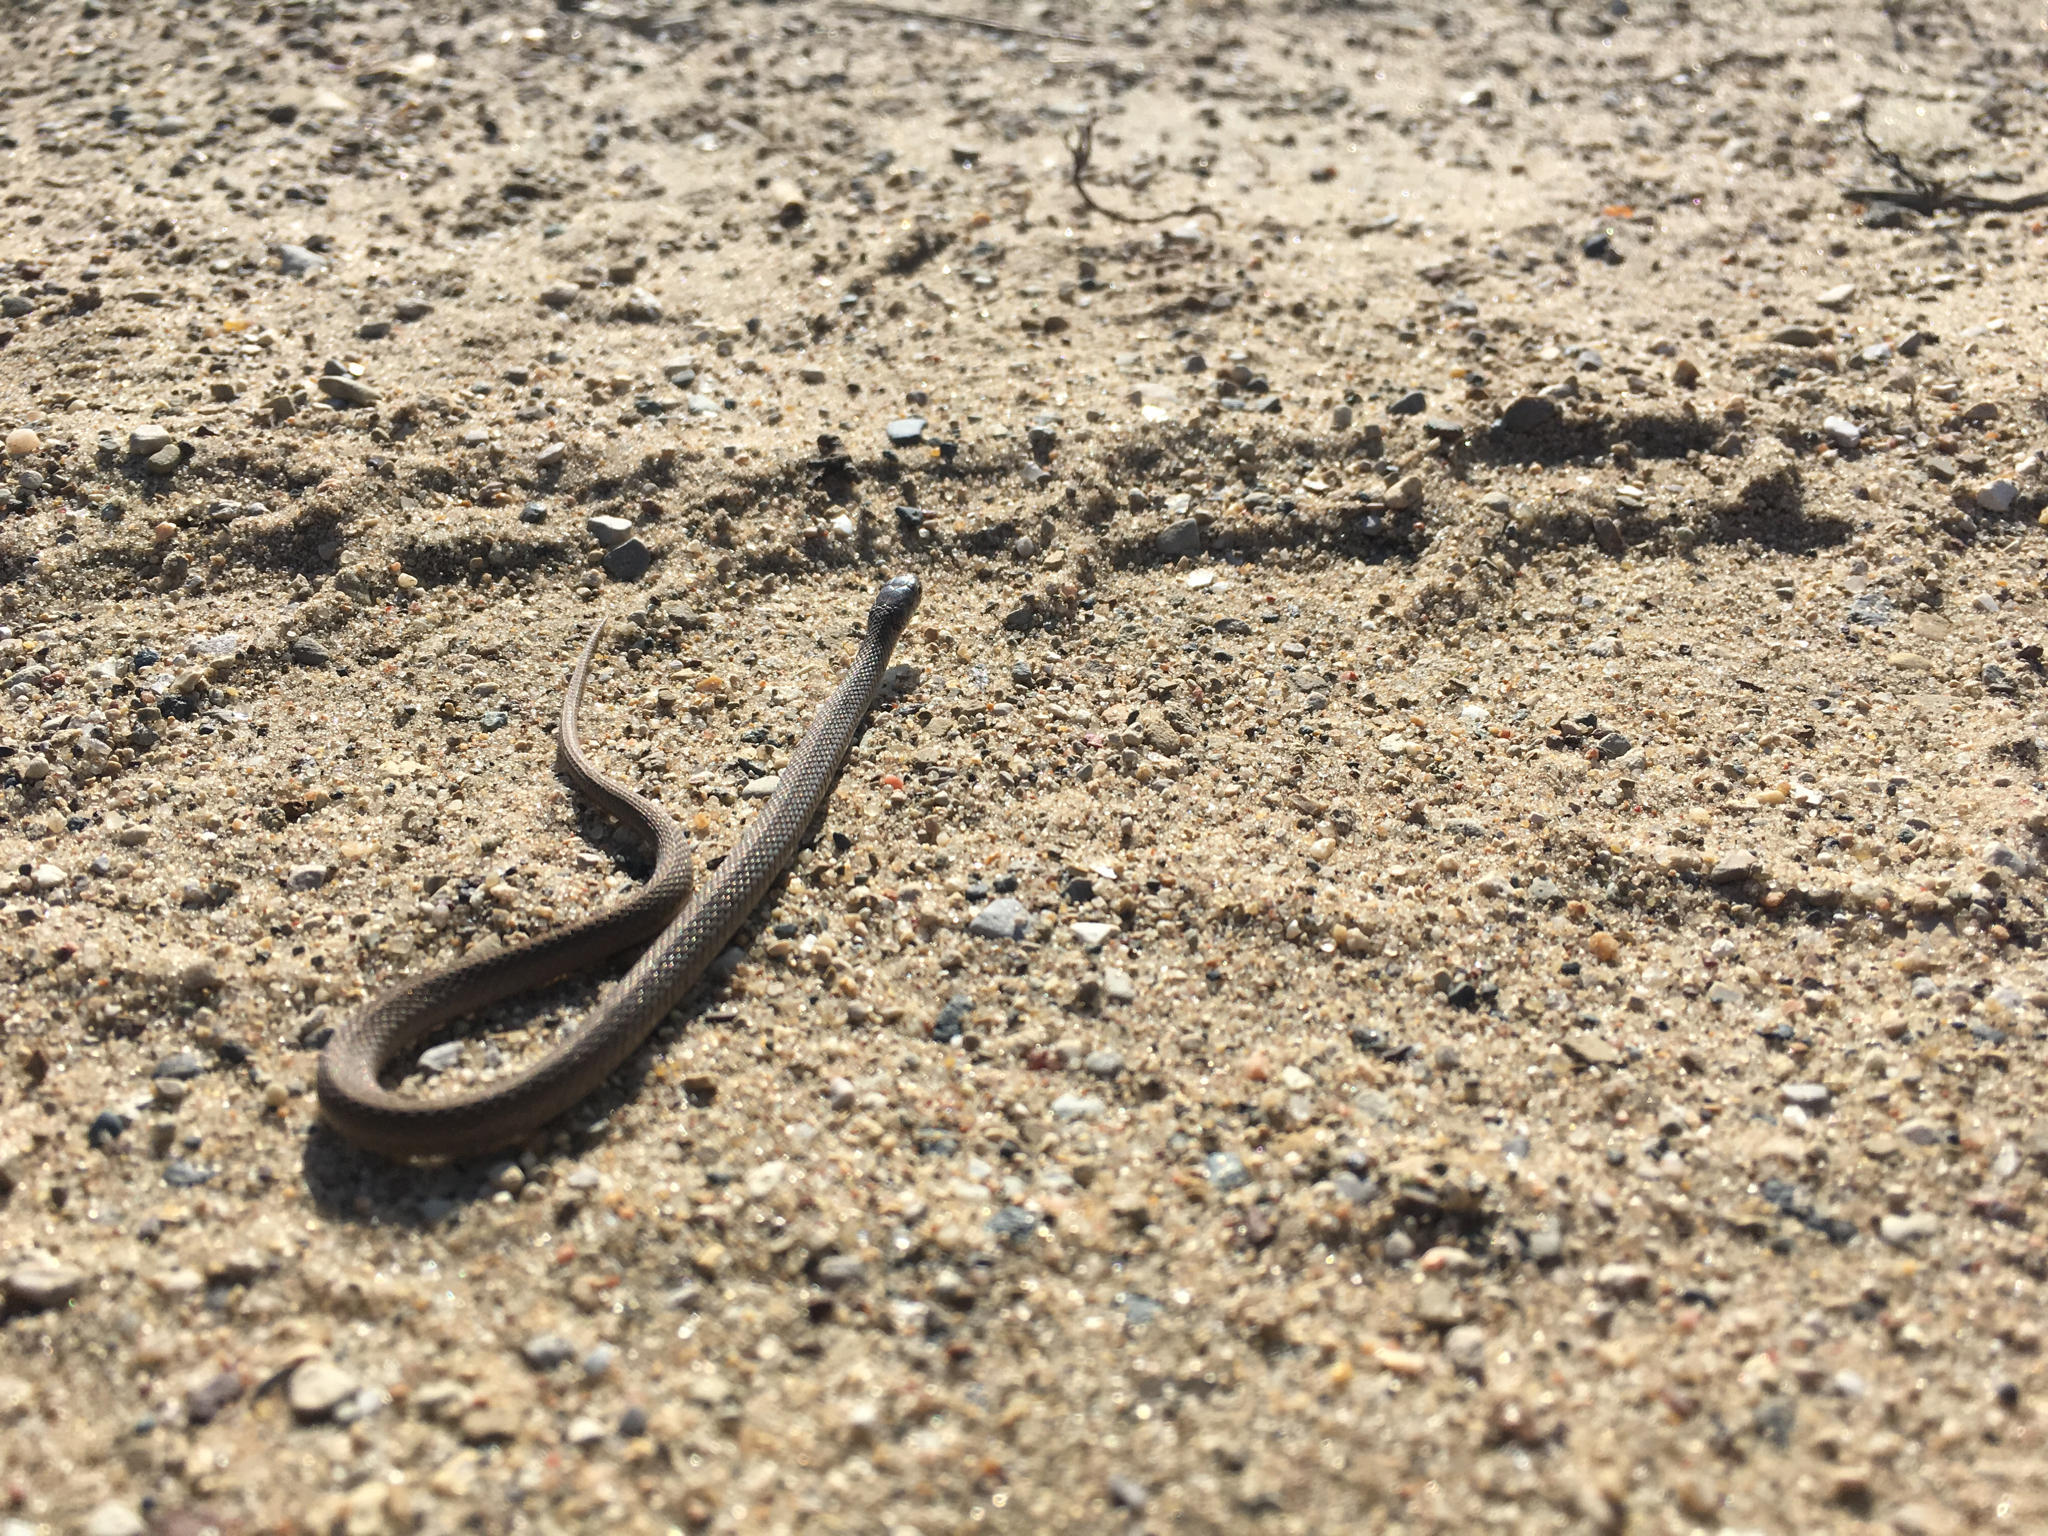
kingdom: Animalia
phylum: Chordata
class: Squamata
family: Colubridae
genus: Storeria
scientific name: Storeria dekayi
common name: (dekay’s) brown snake
